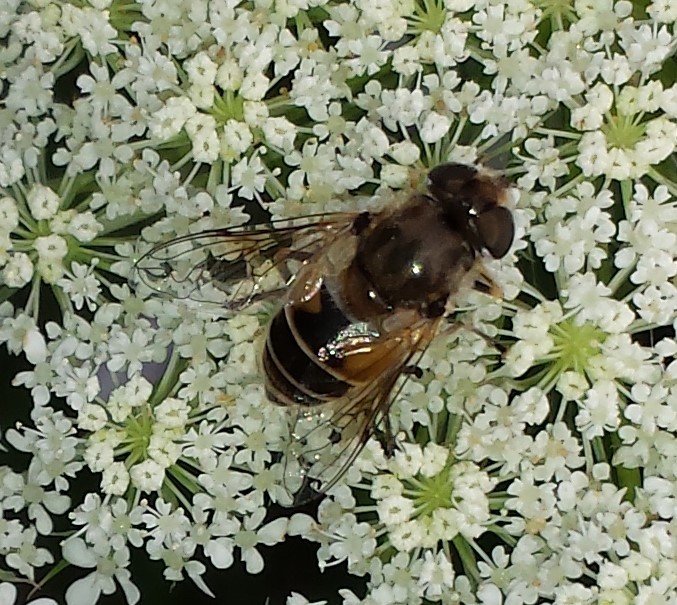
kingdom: Animalia
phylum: Arthropoda
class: Insecta
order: Diptera
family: Syrphidae
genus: Eristalis
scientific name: Eristalis arbustorum
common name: Hover fly
